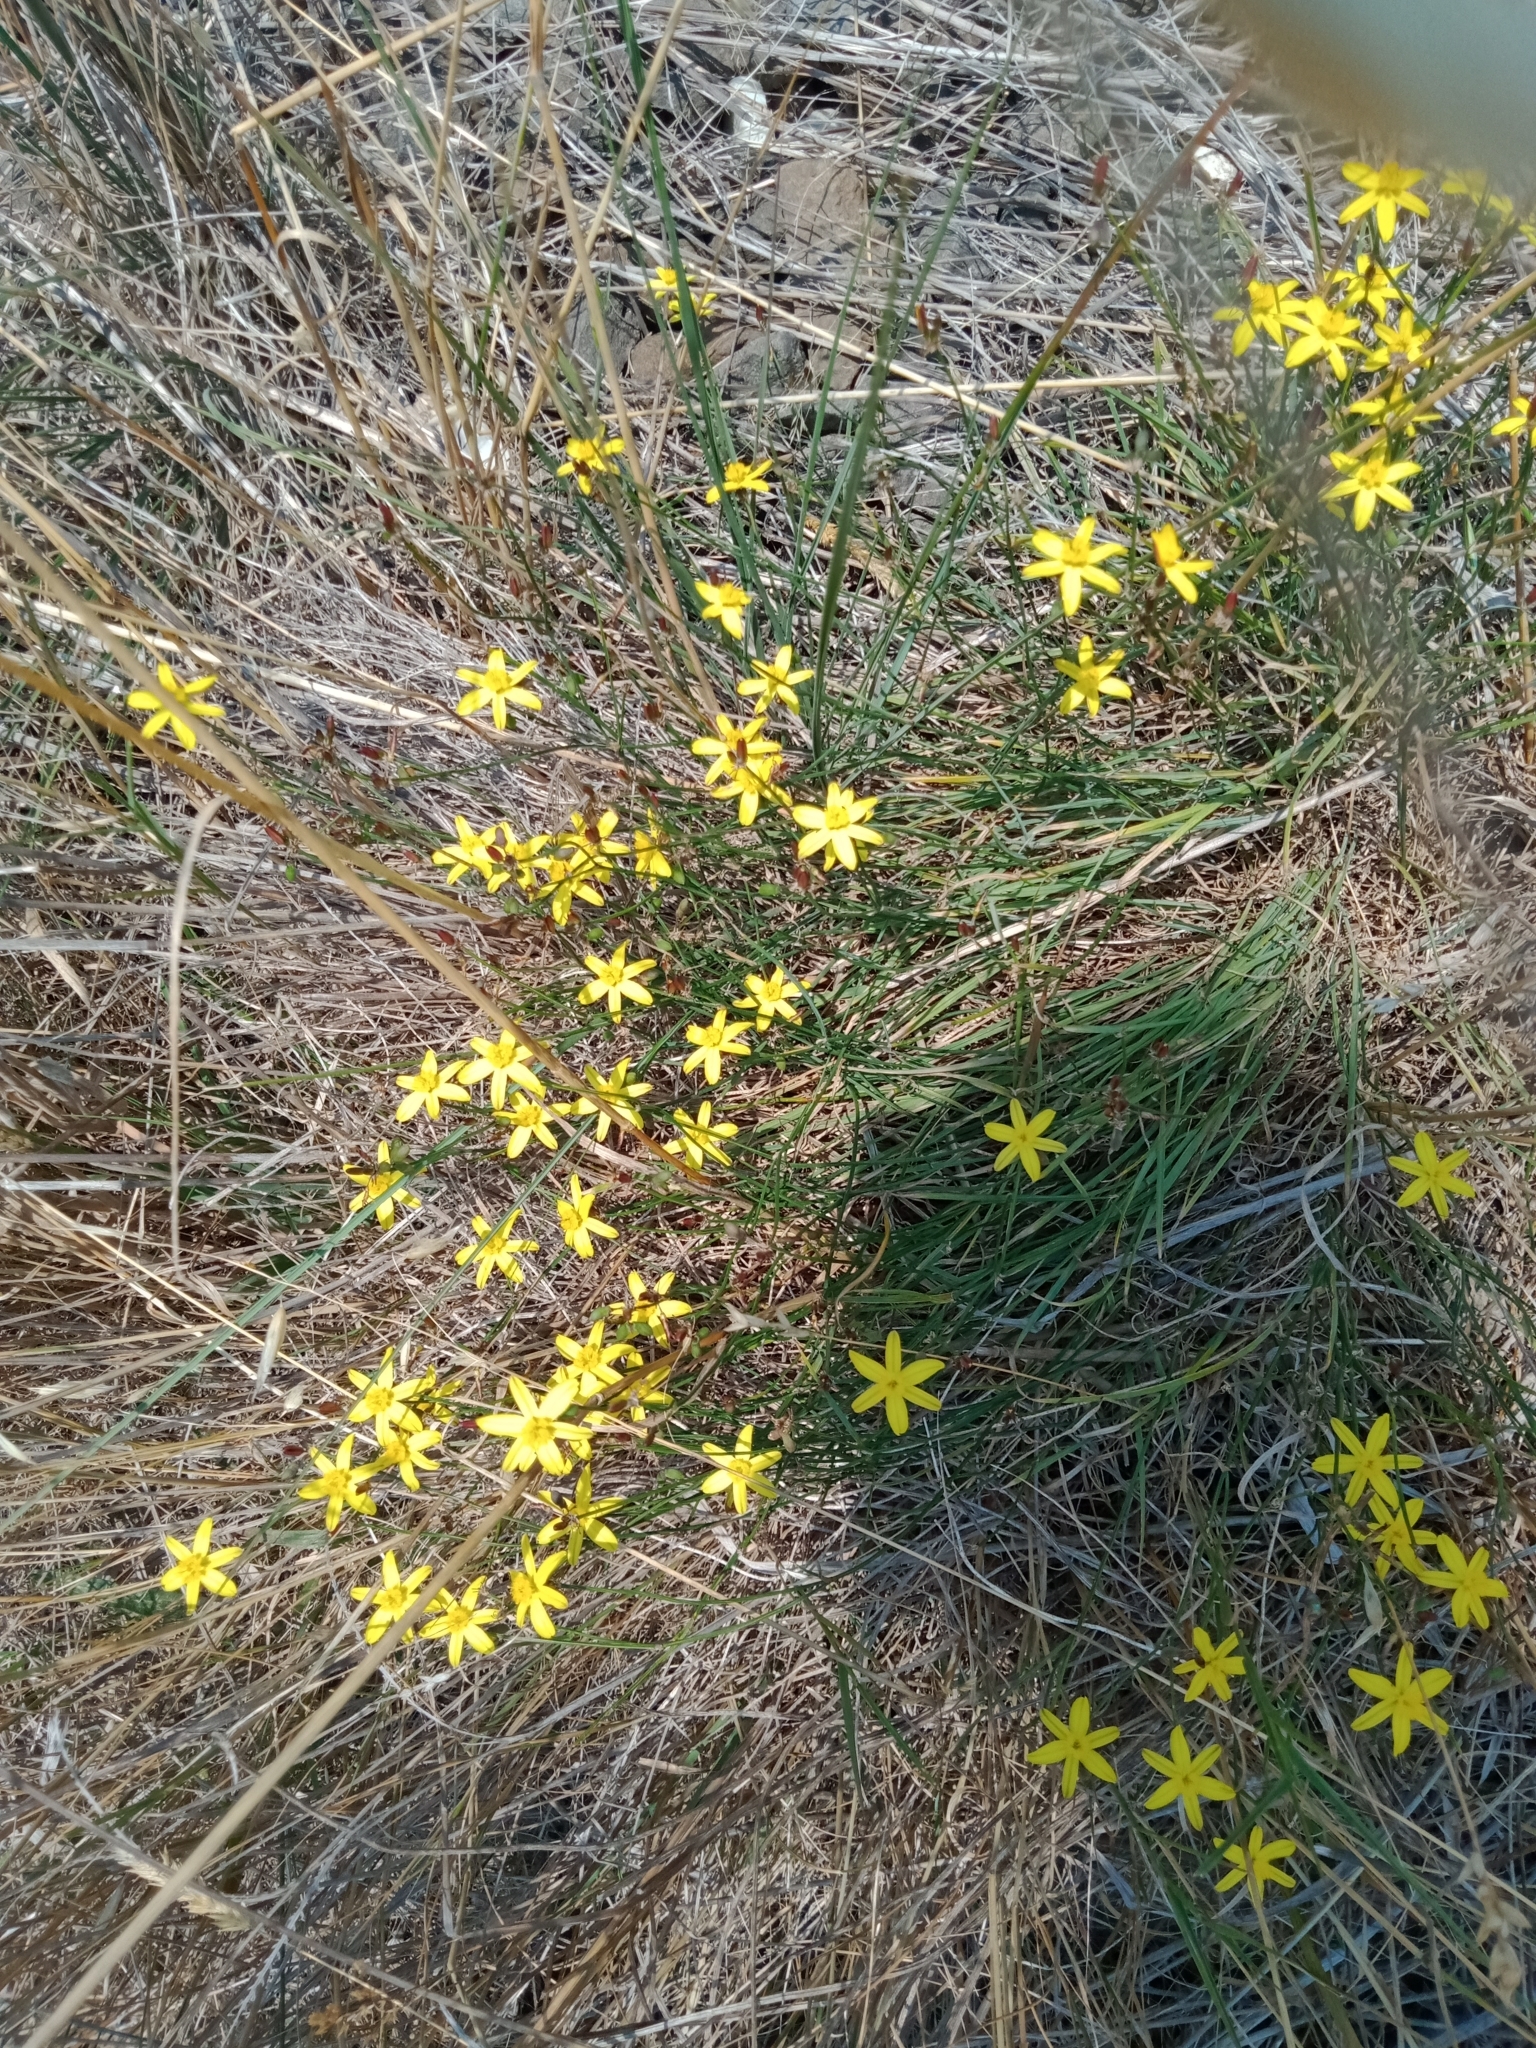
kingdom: Plantae
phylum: Tracheophyta
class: Liliopsida
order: Asparagales
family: Asphodelaceae
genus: Tricoryne
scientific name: Tricoryne elatior
